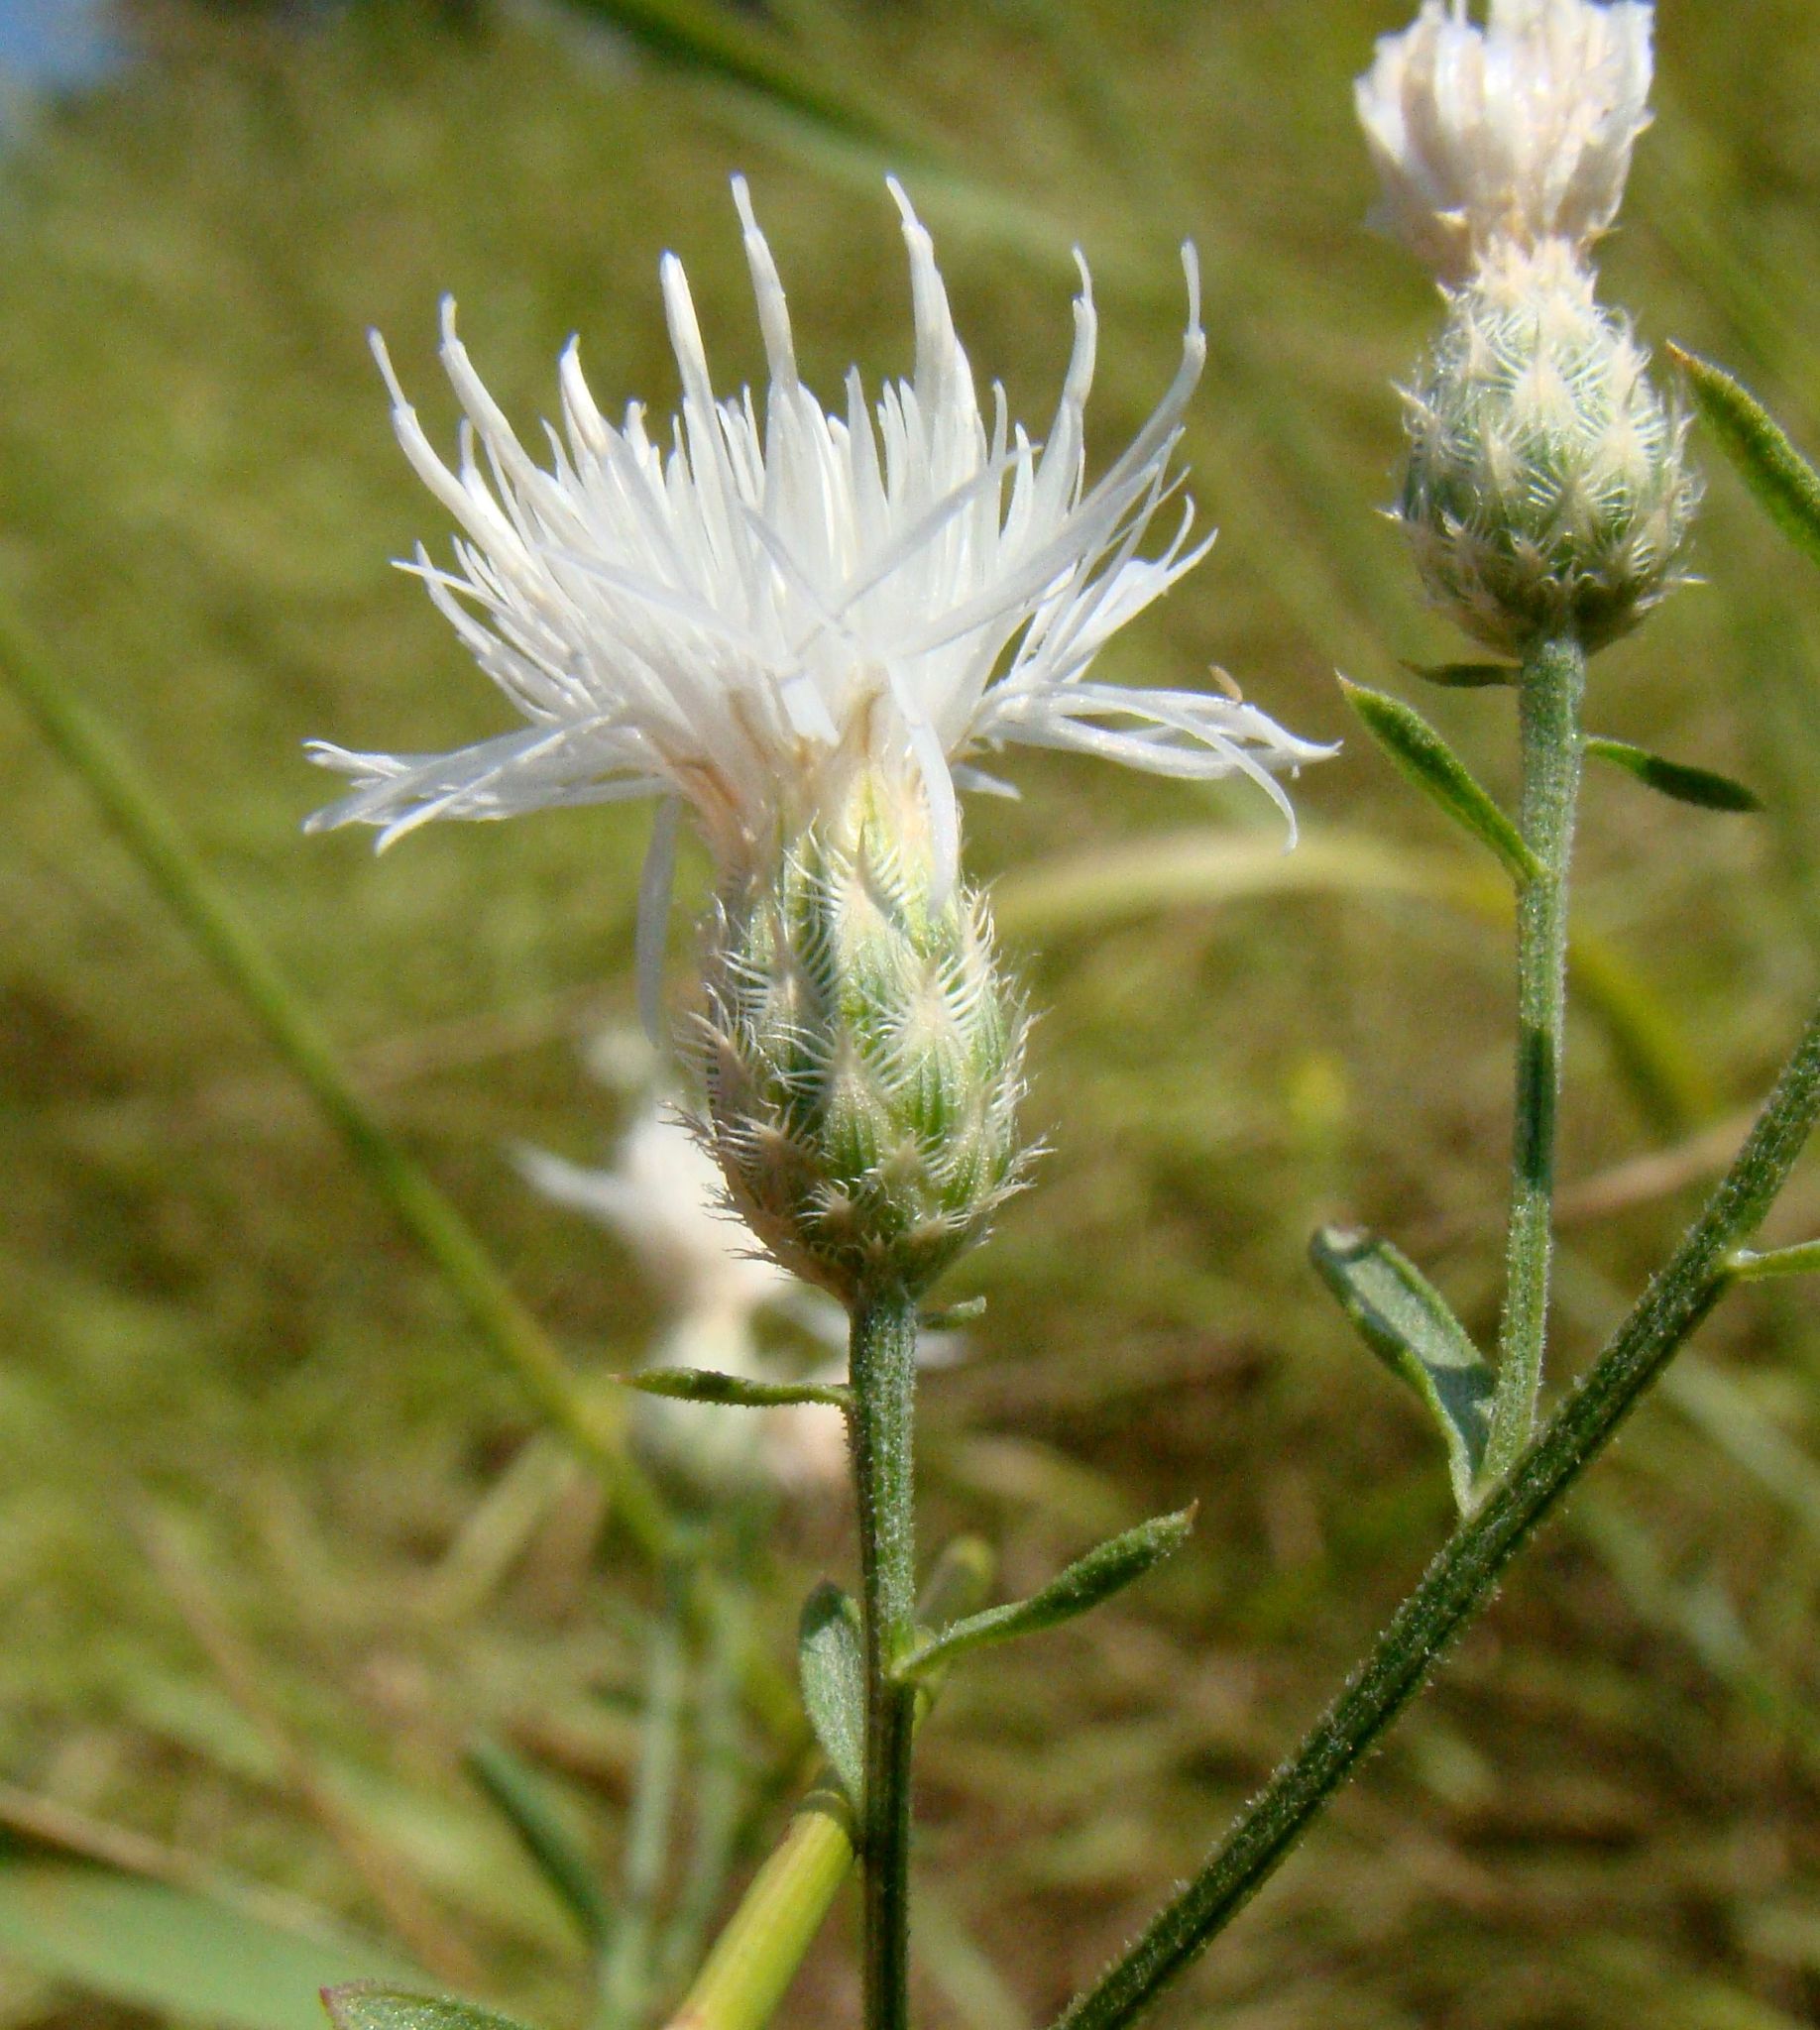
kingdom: Plantae
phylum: Tracheophyta
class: Magnoliopsida
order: Asterales
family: Asteraceae
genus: Centaurea
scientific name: Centaurea diffusa
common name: Diffuse knapweed
